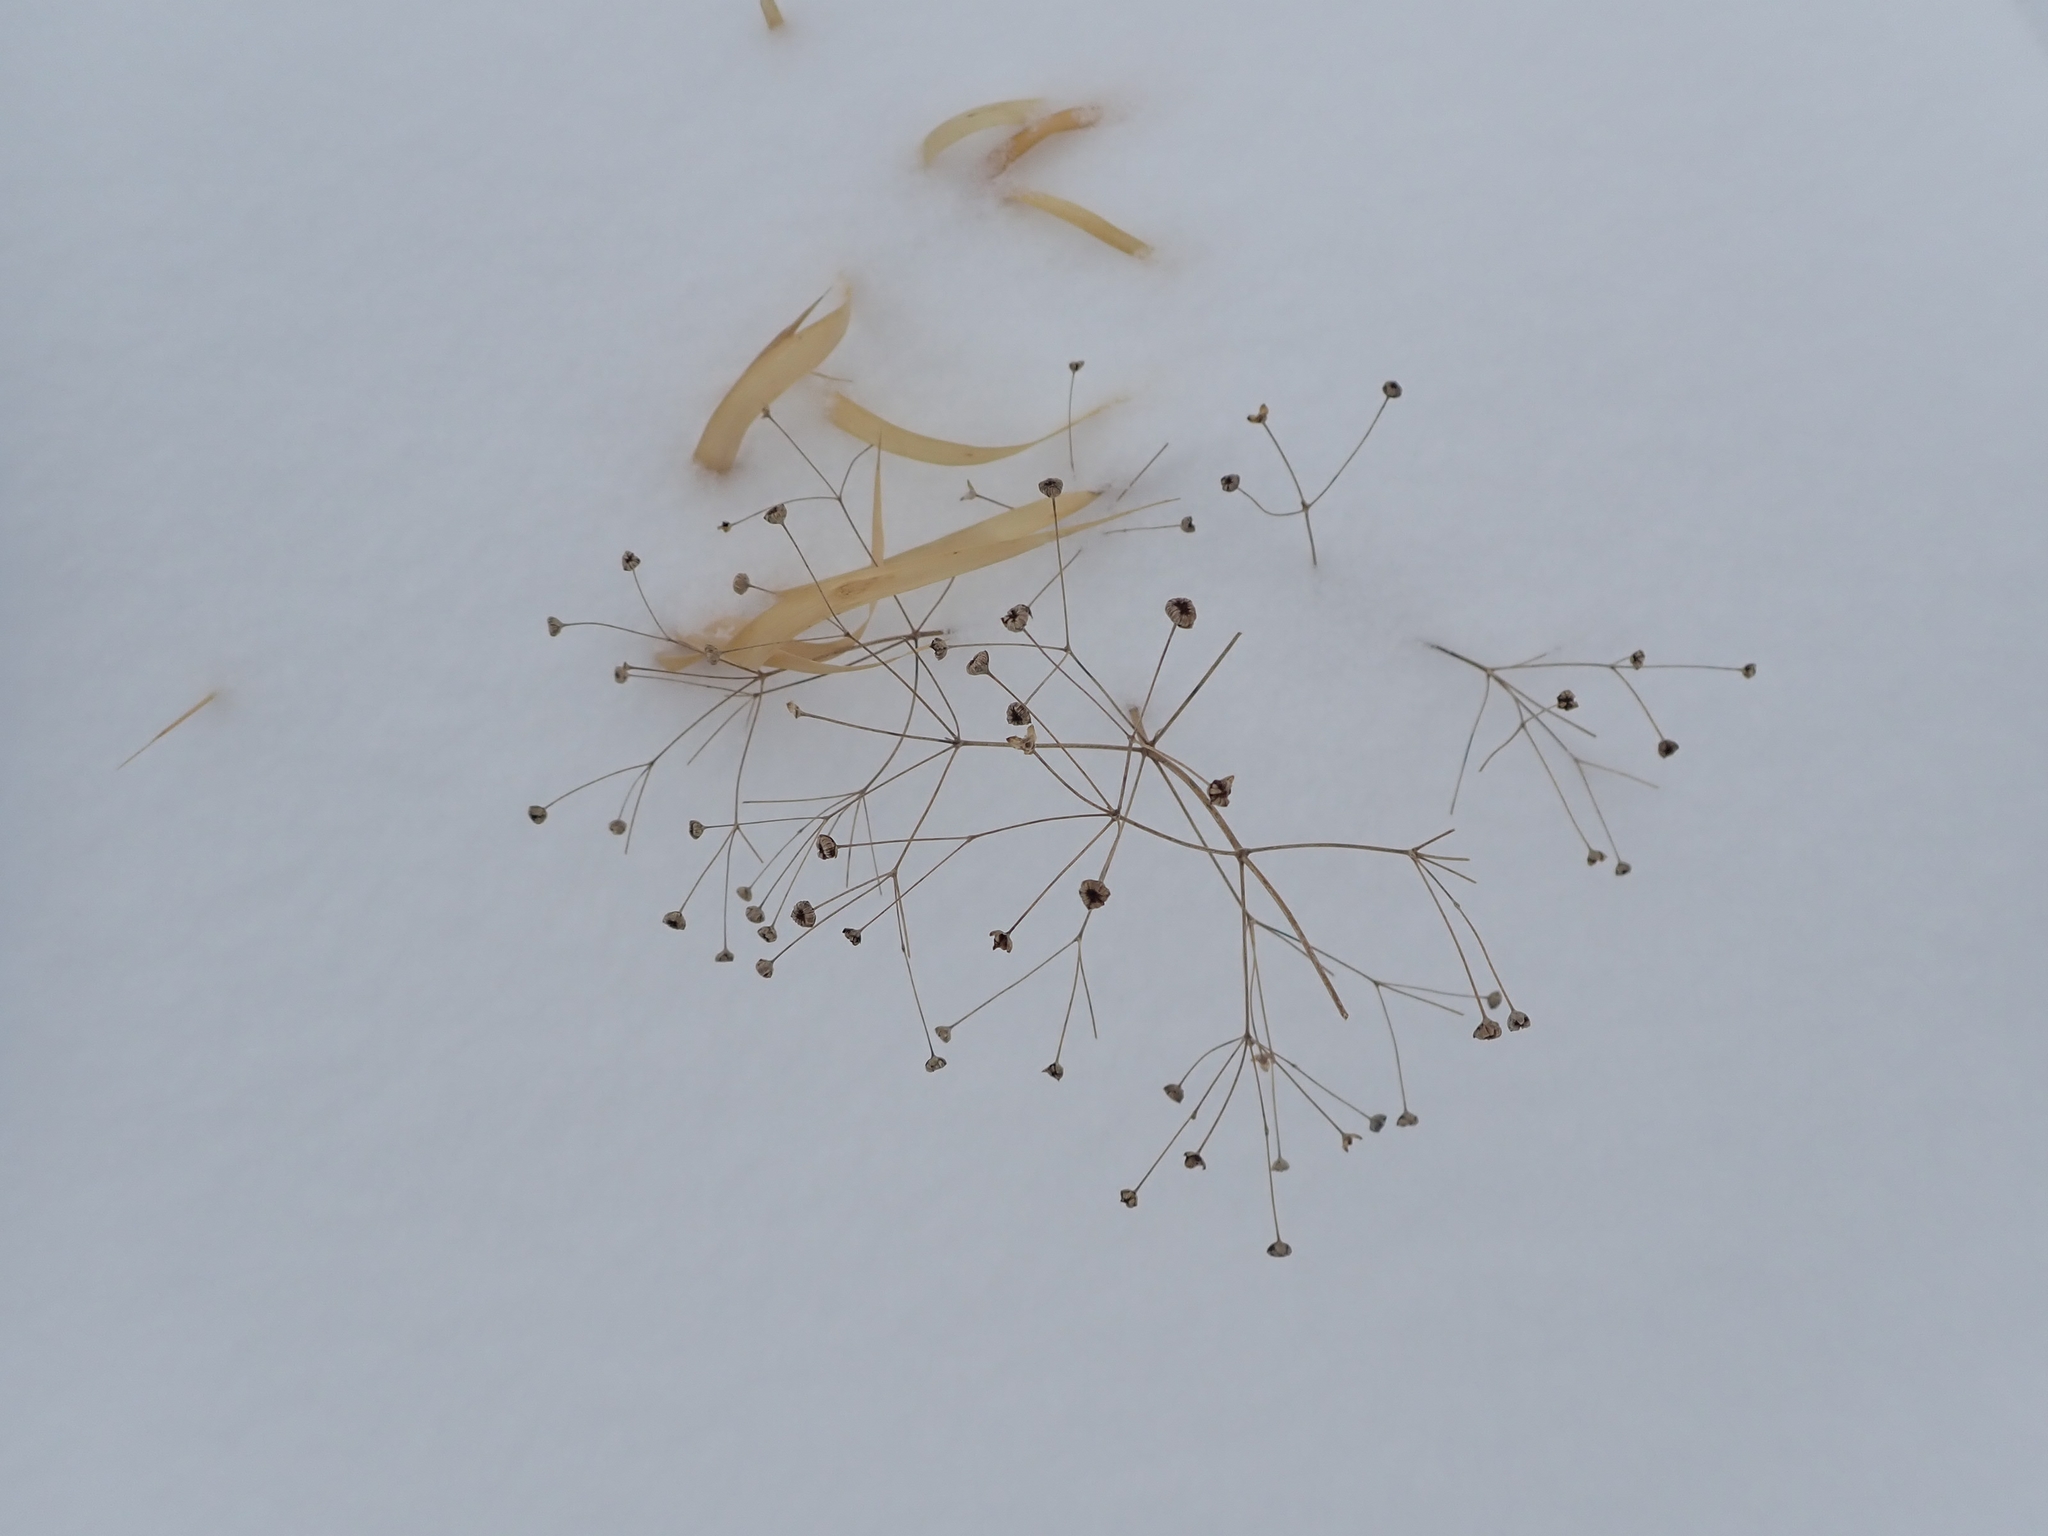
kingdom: Plantae
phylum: Tracheophyta
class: Liliopsida
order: Alismatales
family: Alismataceae
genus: Alisma
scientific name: Alisma triviale
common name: Northern water-plantain
